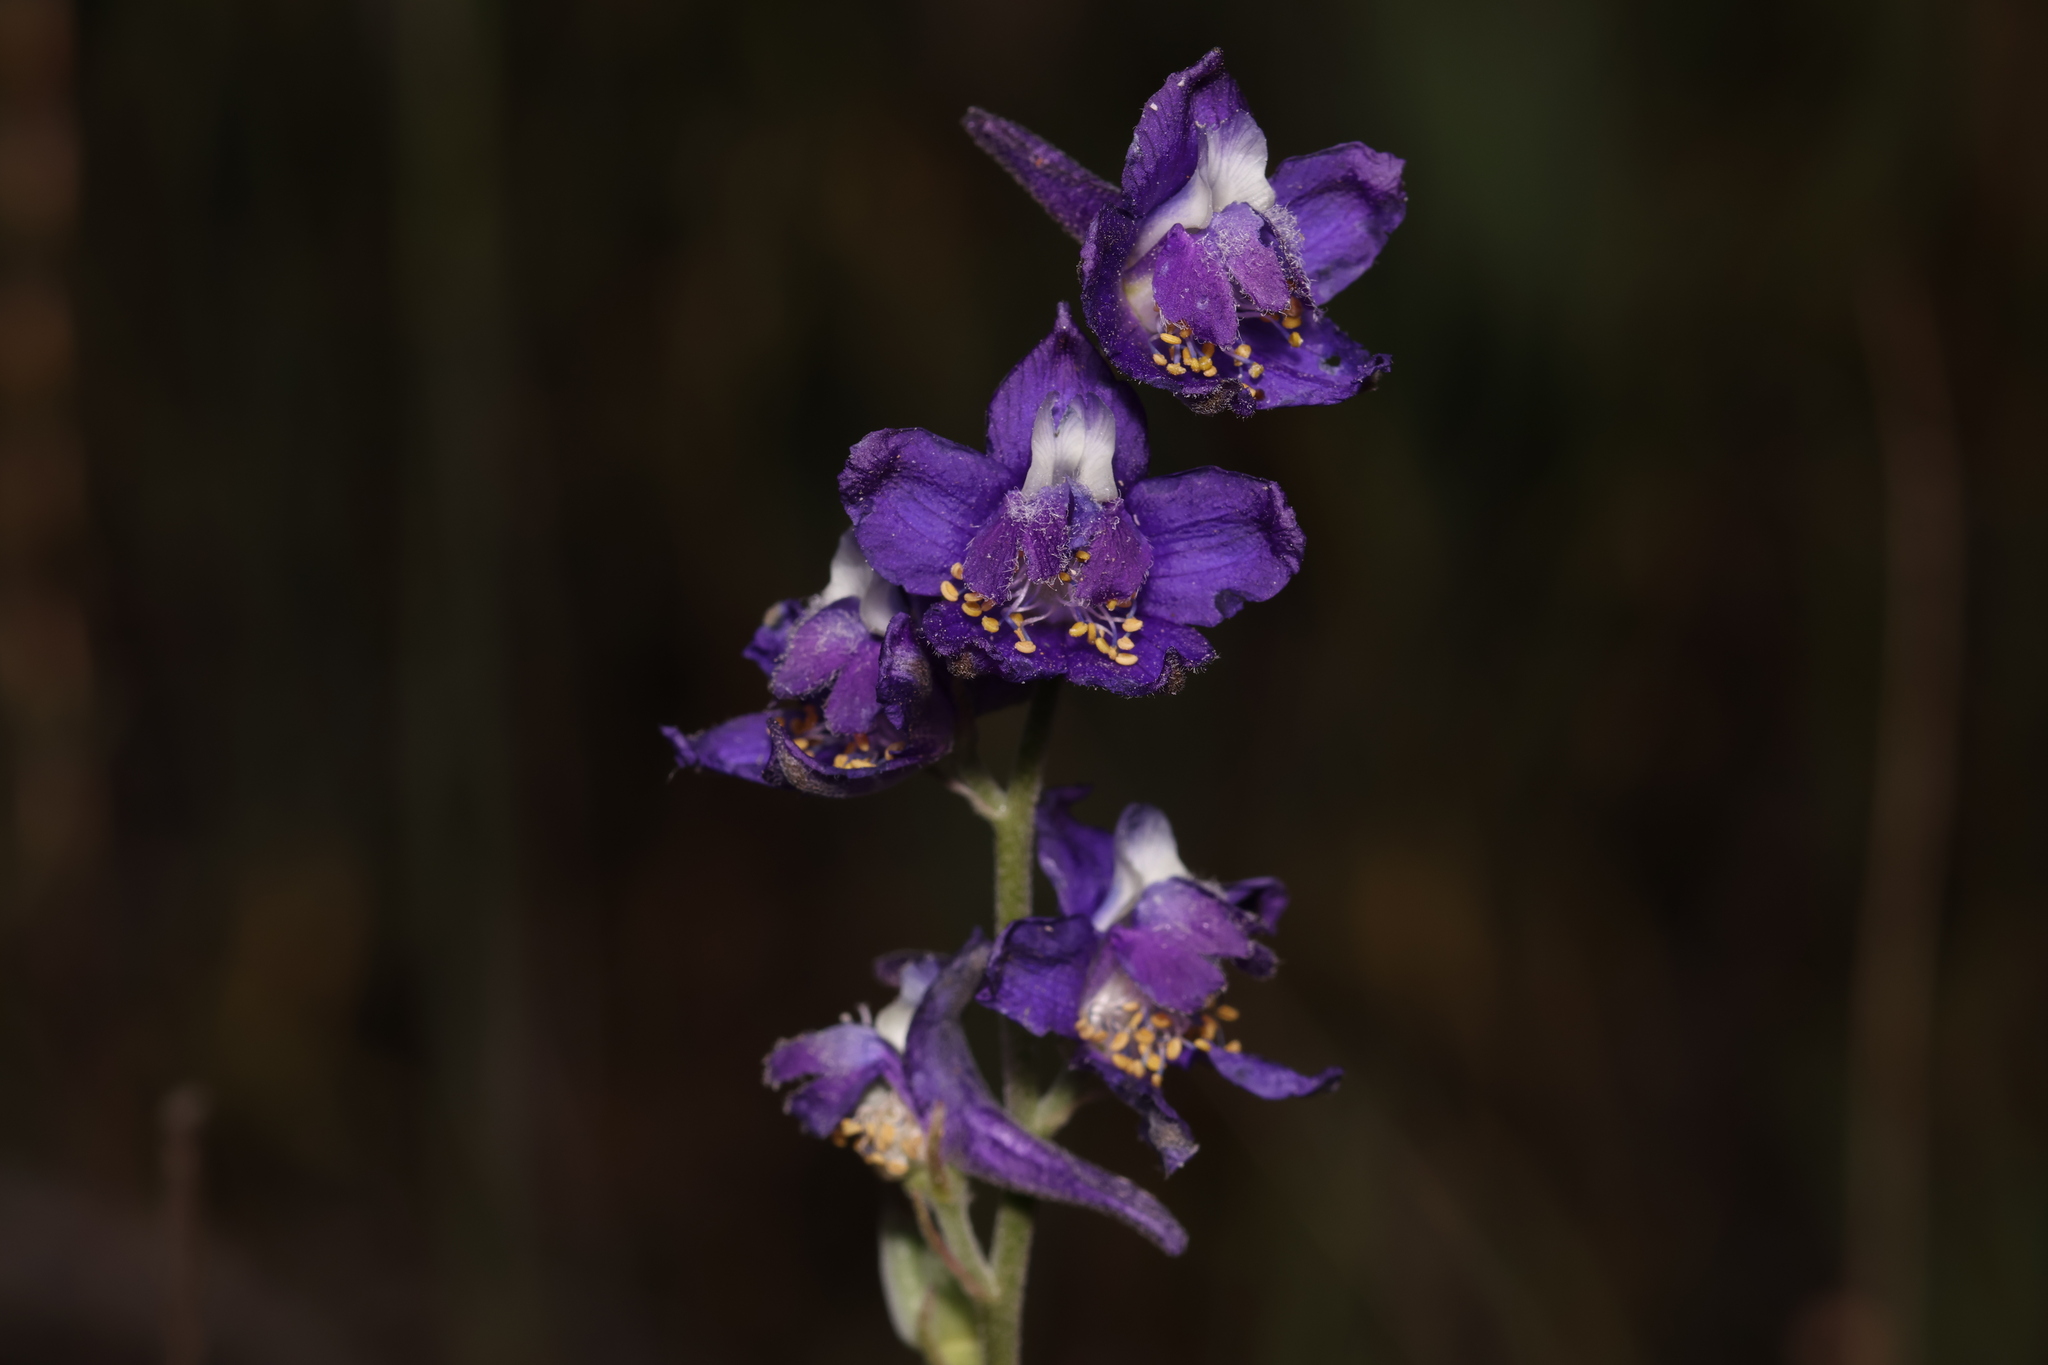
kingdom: Plantae
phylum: Tracheophyta
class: Magnoliopsida
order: Ranunculales
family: Ranunculaceae
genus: Delphinium
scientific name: Delphinium hesperium
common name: Western larkspur
